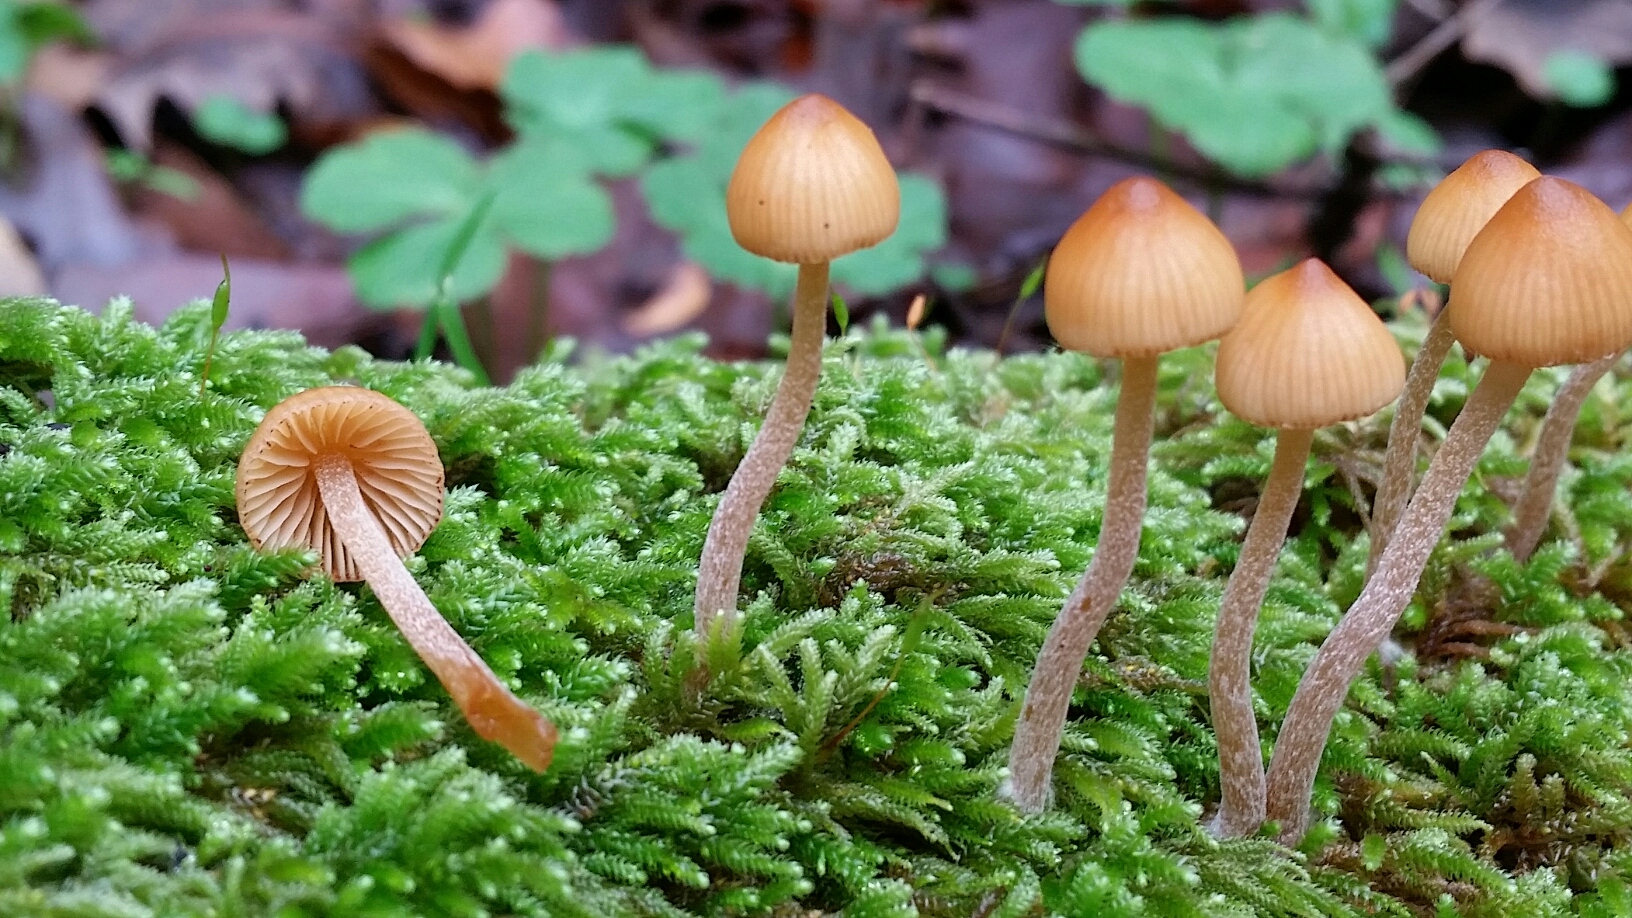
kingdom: Fungi
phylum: Basidiomycota
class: Agaricomycetes
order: Agaricales
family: Hymenogastraceae
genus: Galerina
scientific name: Galerina semilanceata
